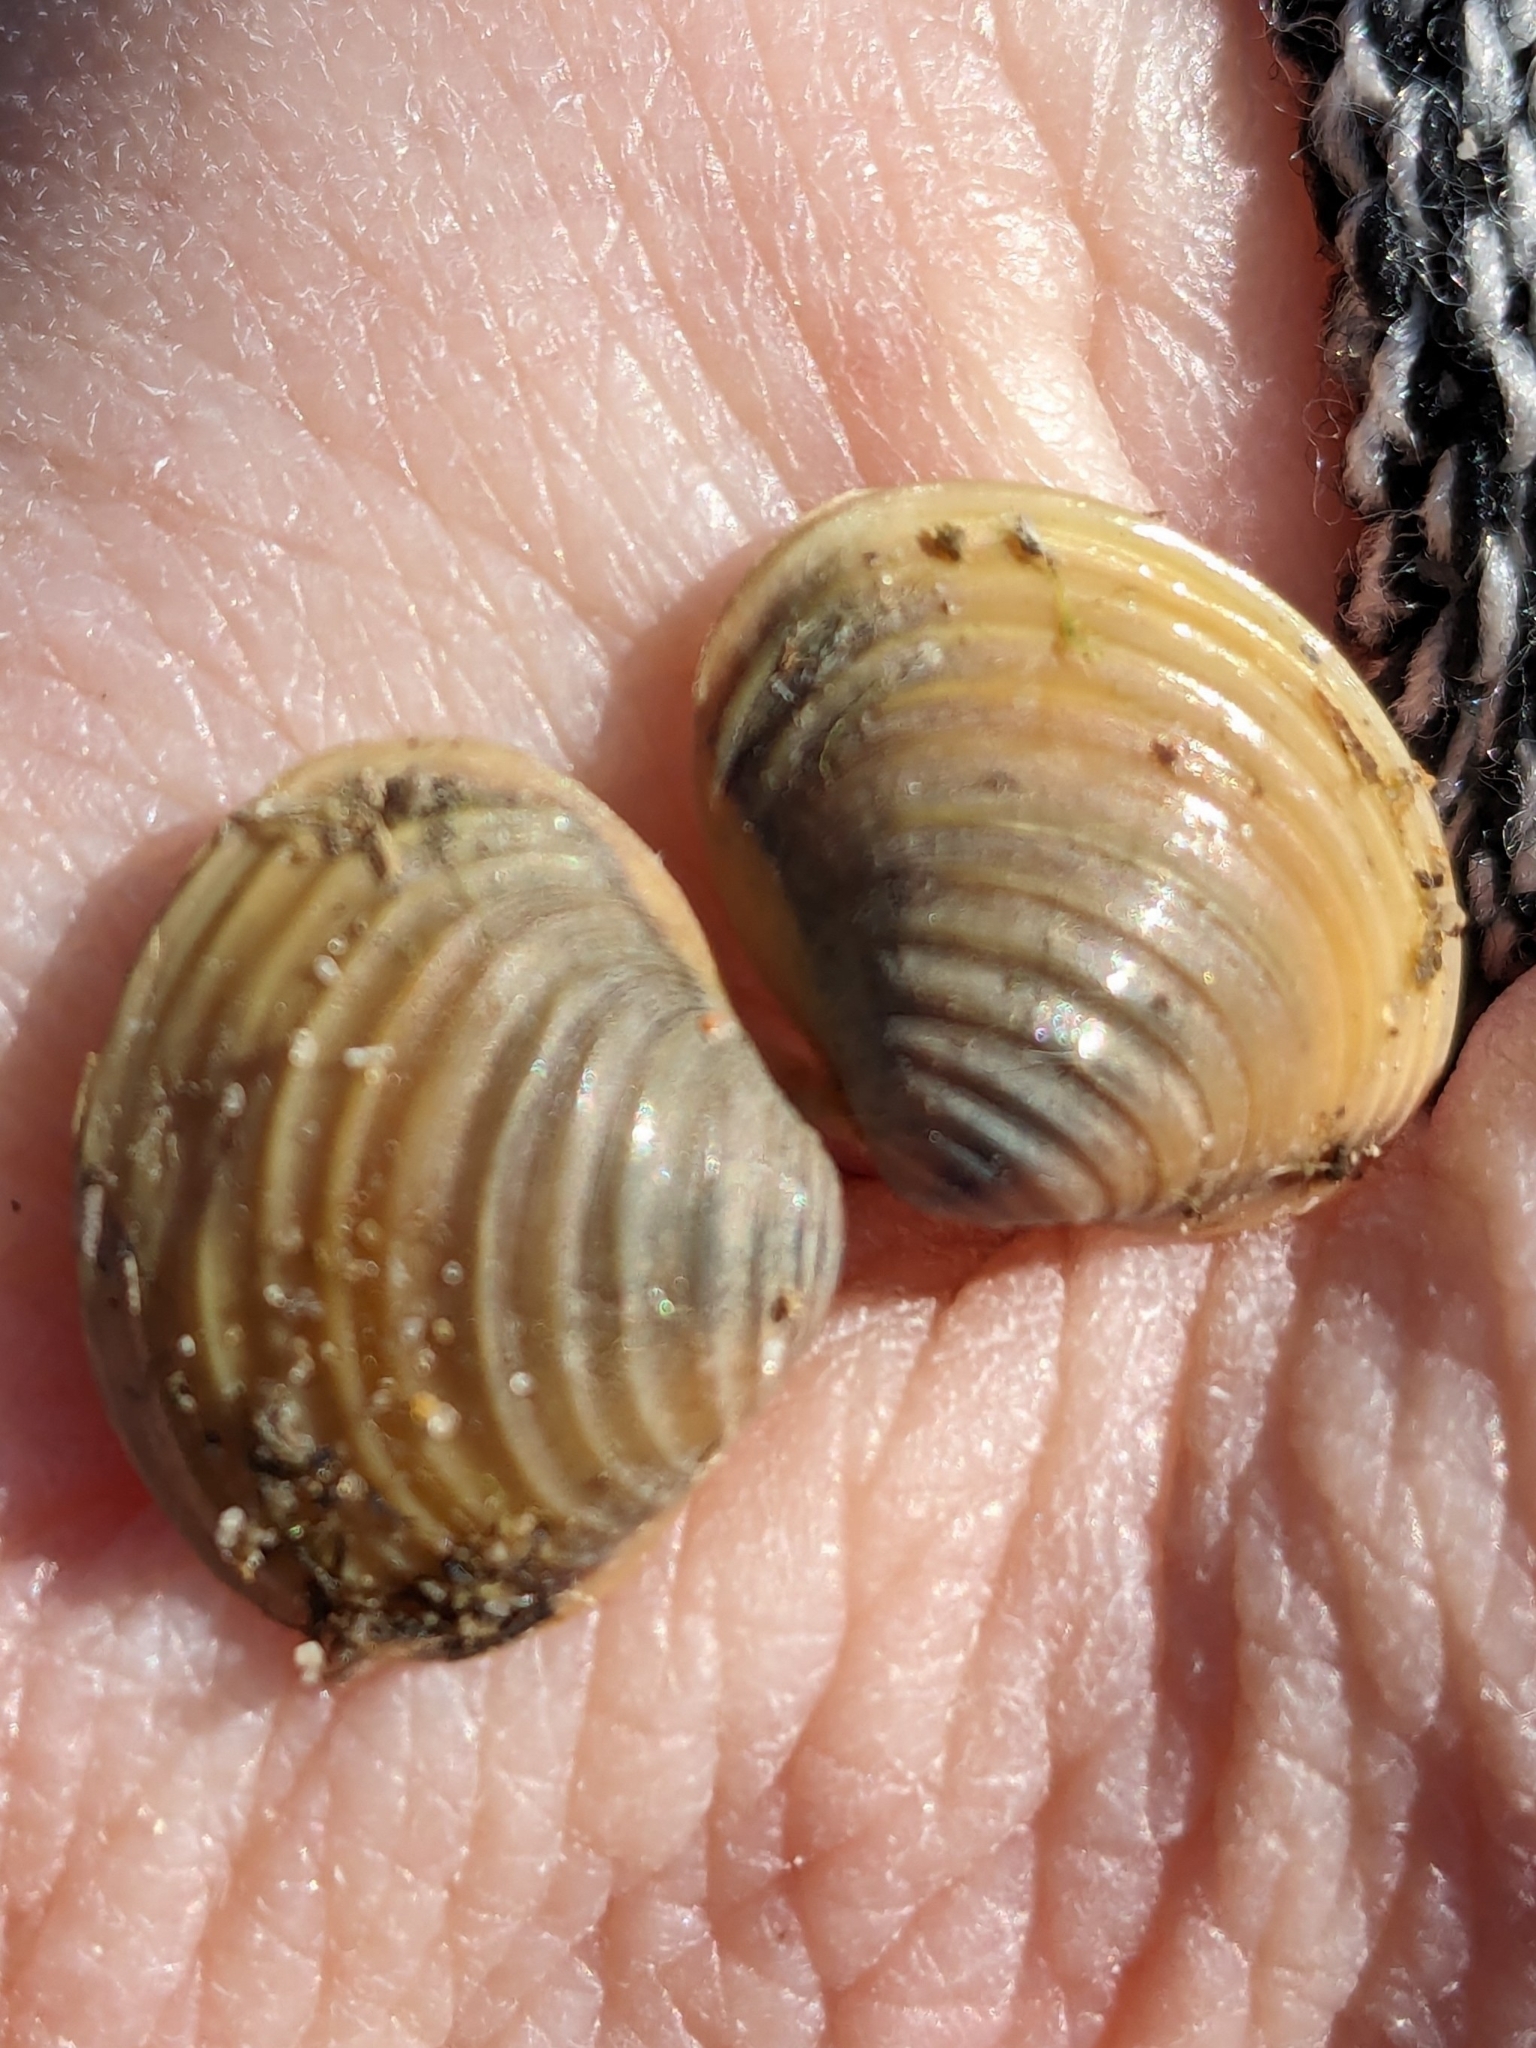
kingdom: Animalia
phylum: Mollusca
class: Bivalvia
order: Venerida
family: Cyrenidae
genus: Corbicula
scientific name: Corbicula fluminea
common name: Asian clam
